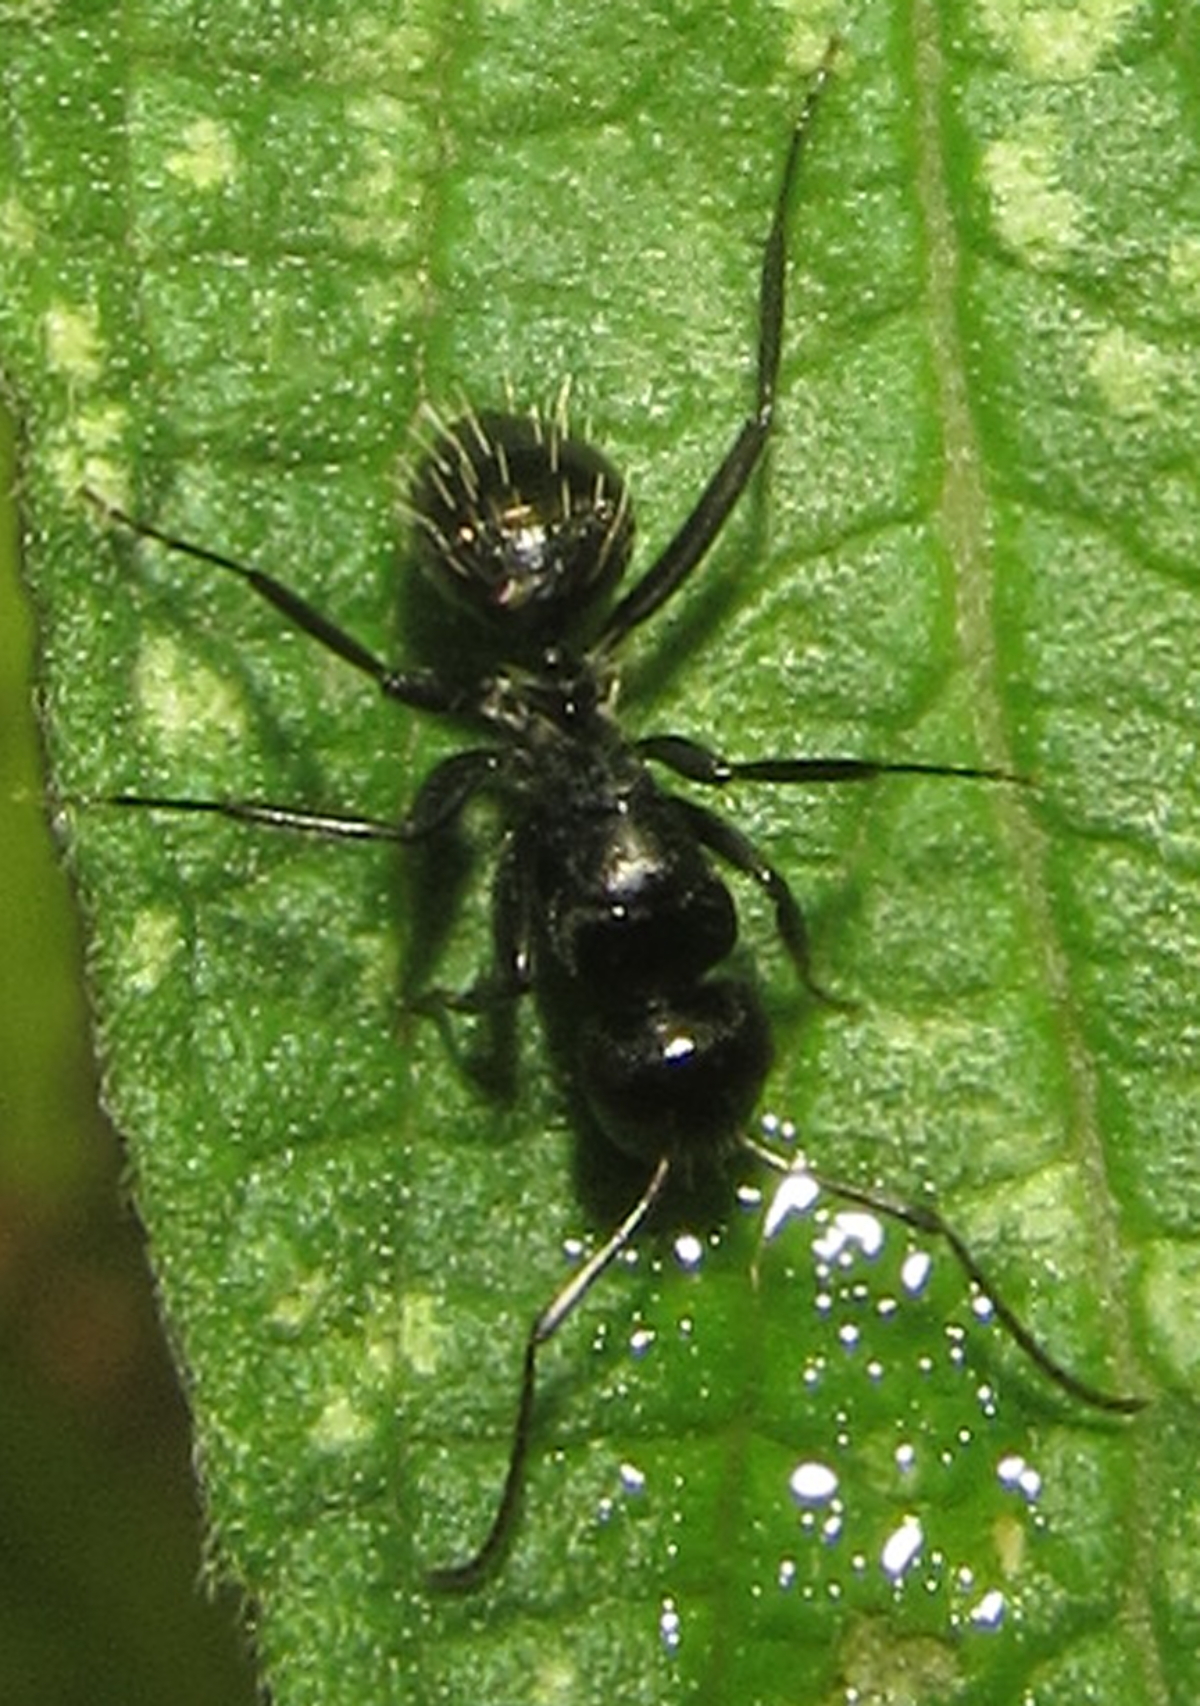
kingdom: Animalia
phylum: Arthropoda
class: Insecta
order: Hymenoptera
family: Formicidae
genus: Camponotus
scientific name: Camponotus niveosetosus
